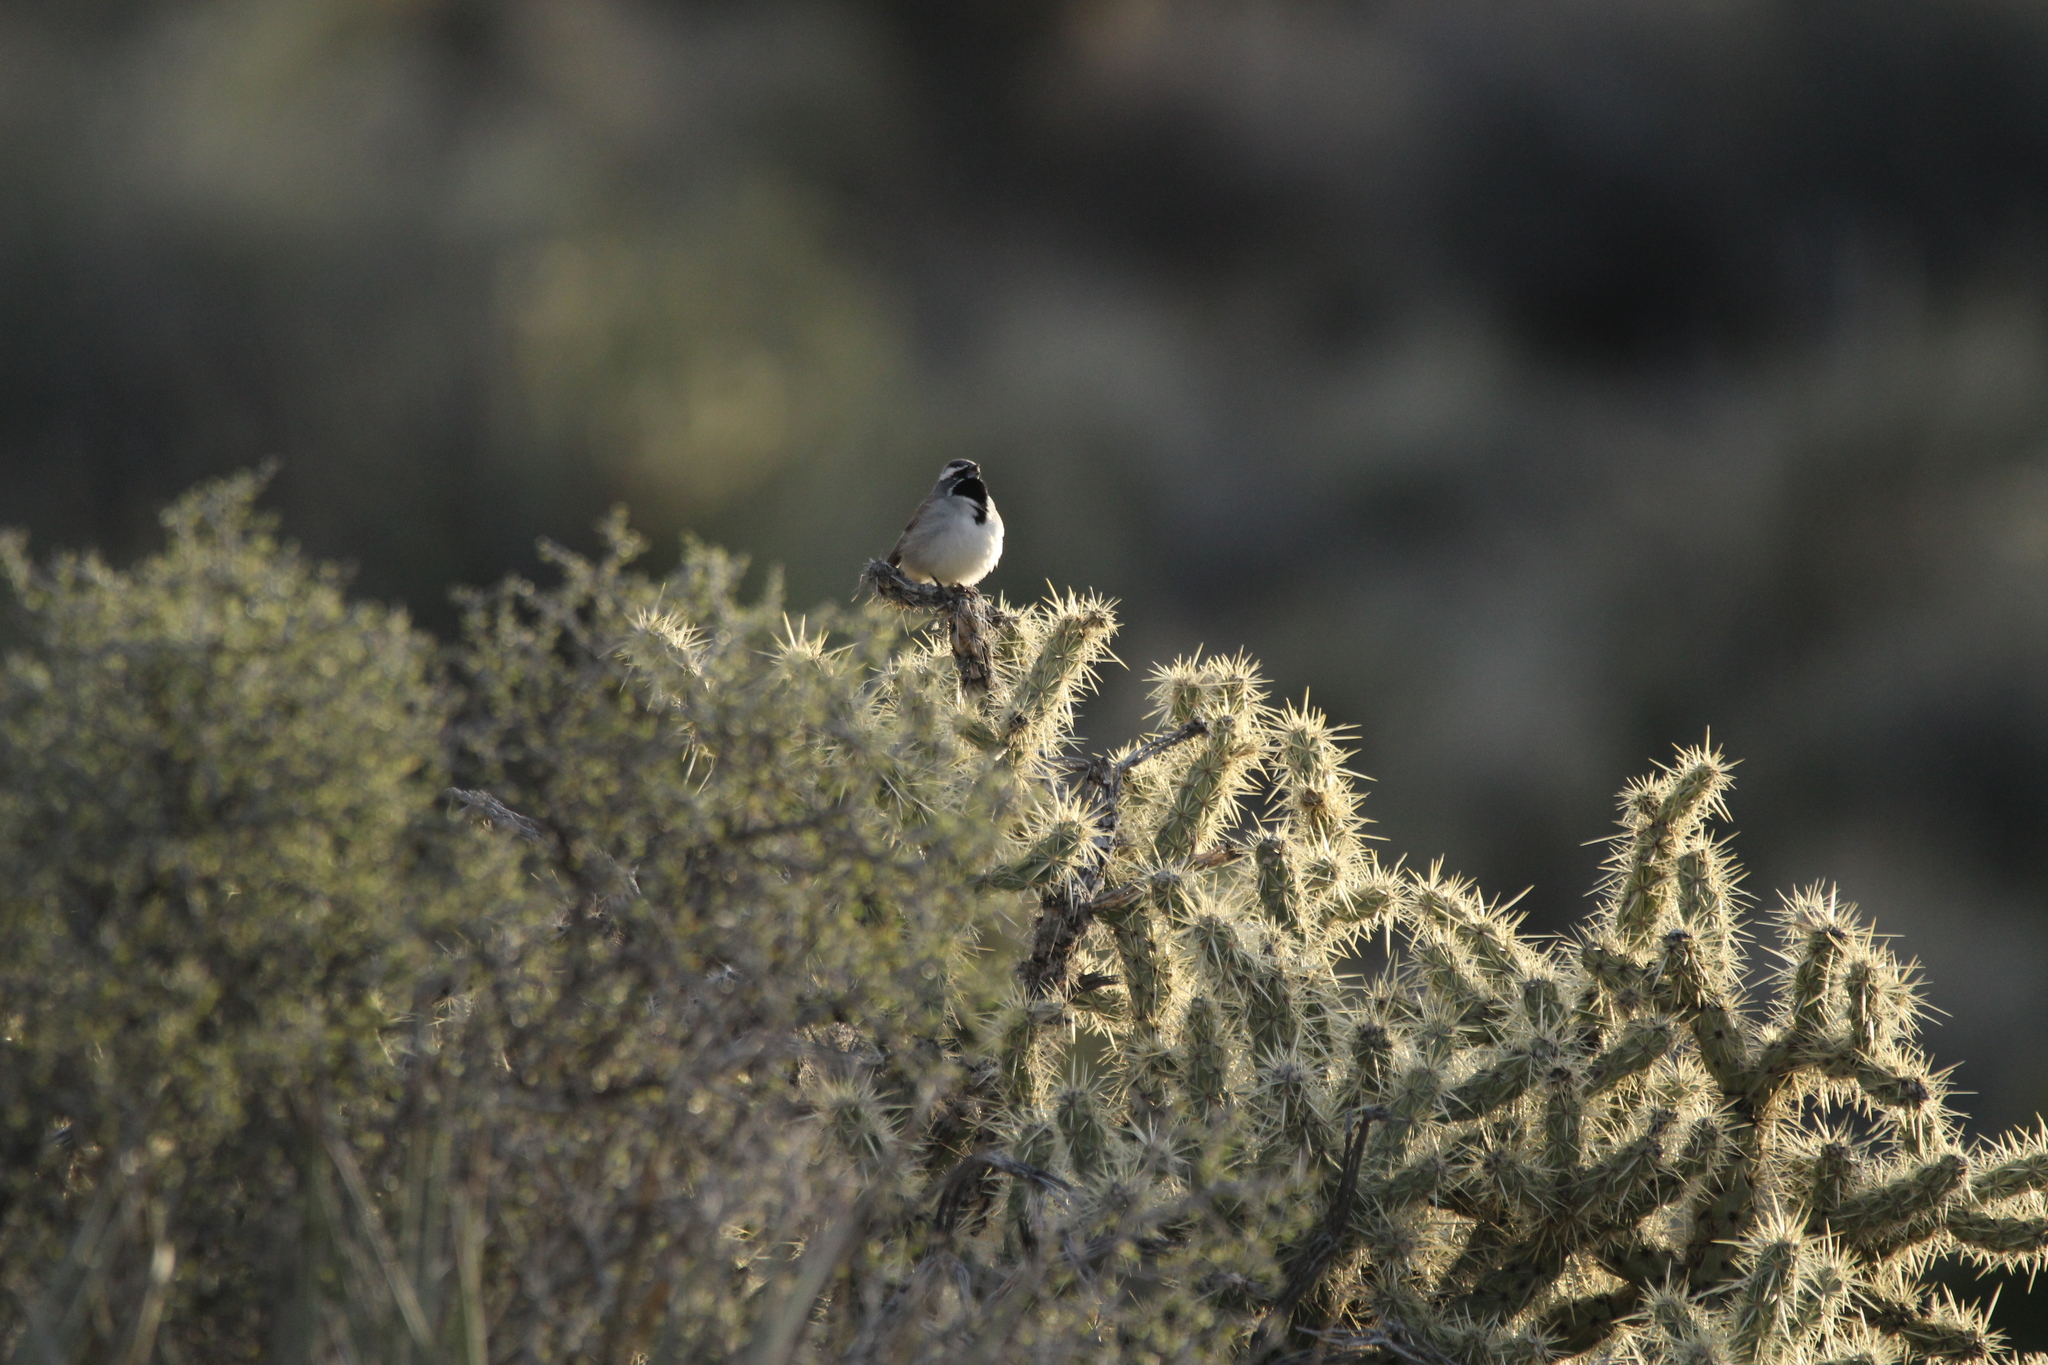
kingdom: Animalia
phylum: Chordata
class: Aves
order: Passeriformes
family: Passerellidae
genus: Amphispiza
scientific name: Amphispiza bilineata
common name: Black-throated sparrow
